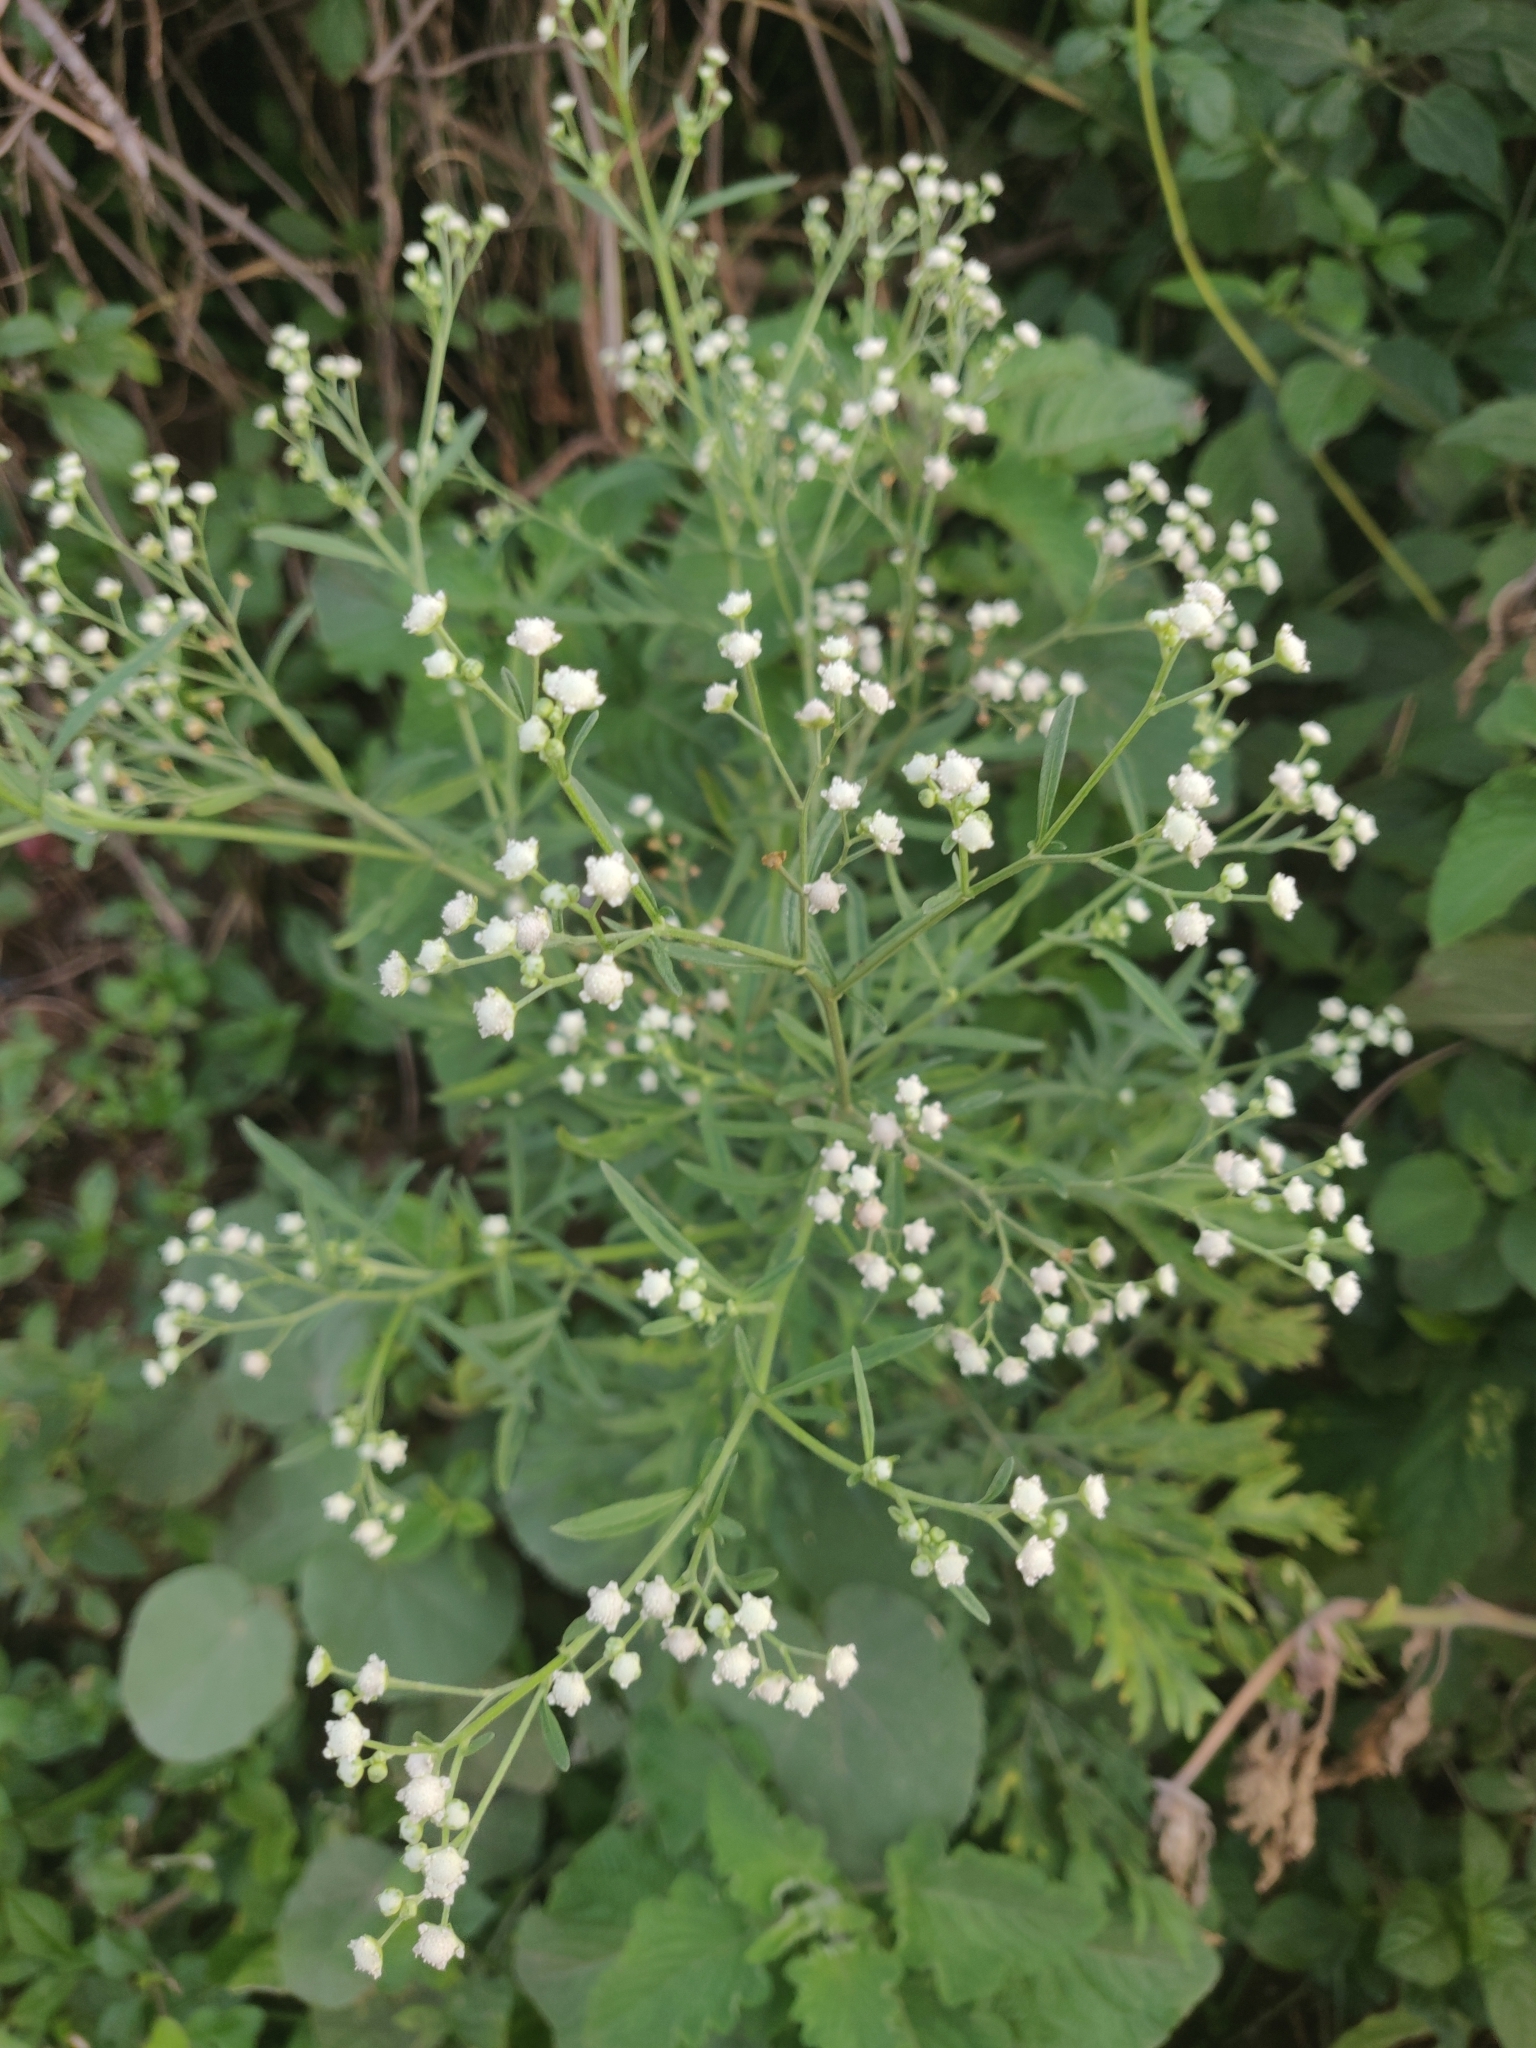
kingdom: Plantae
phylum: Tracheophyta
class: Magnoliopsida
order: Asterales
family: Asteraceae
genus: Parthenium
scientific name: Parthenium hysterophorus
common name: Santa maria feverfew
